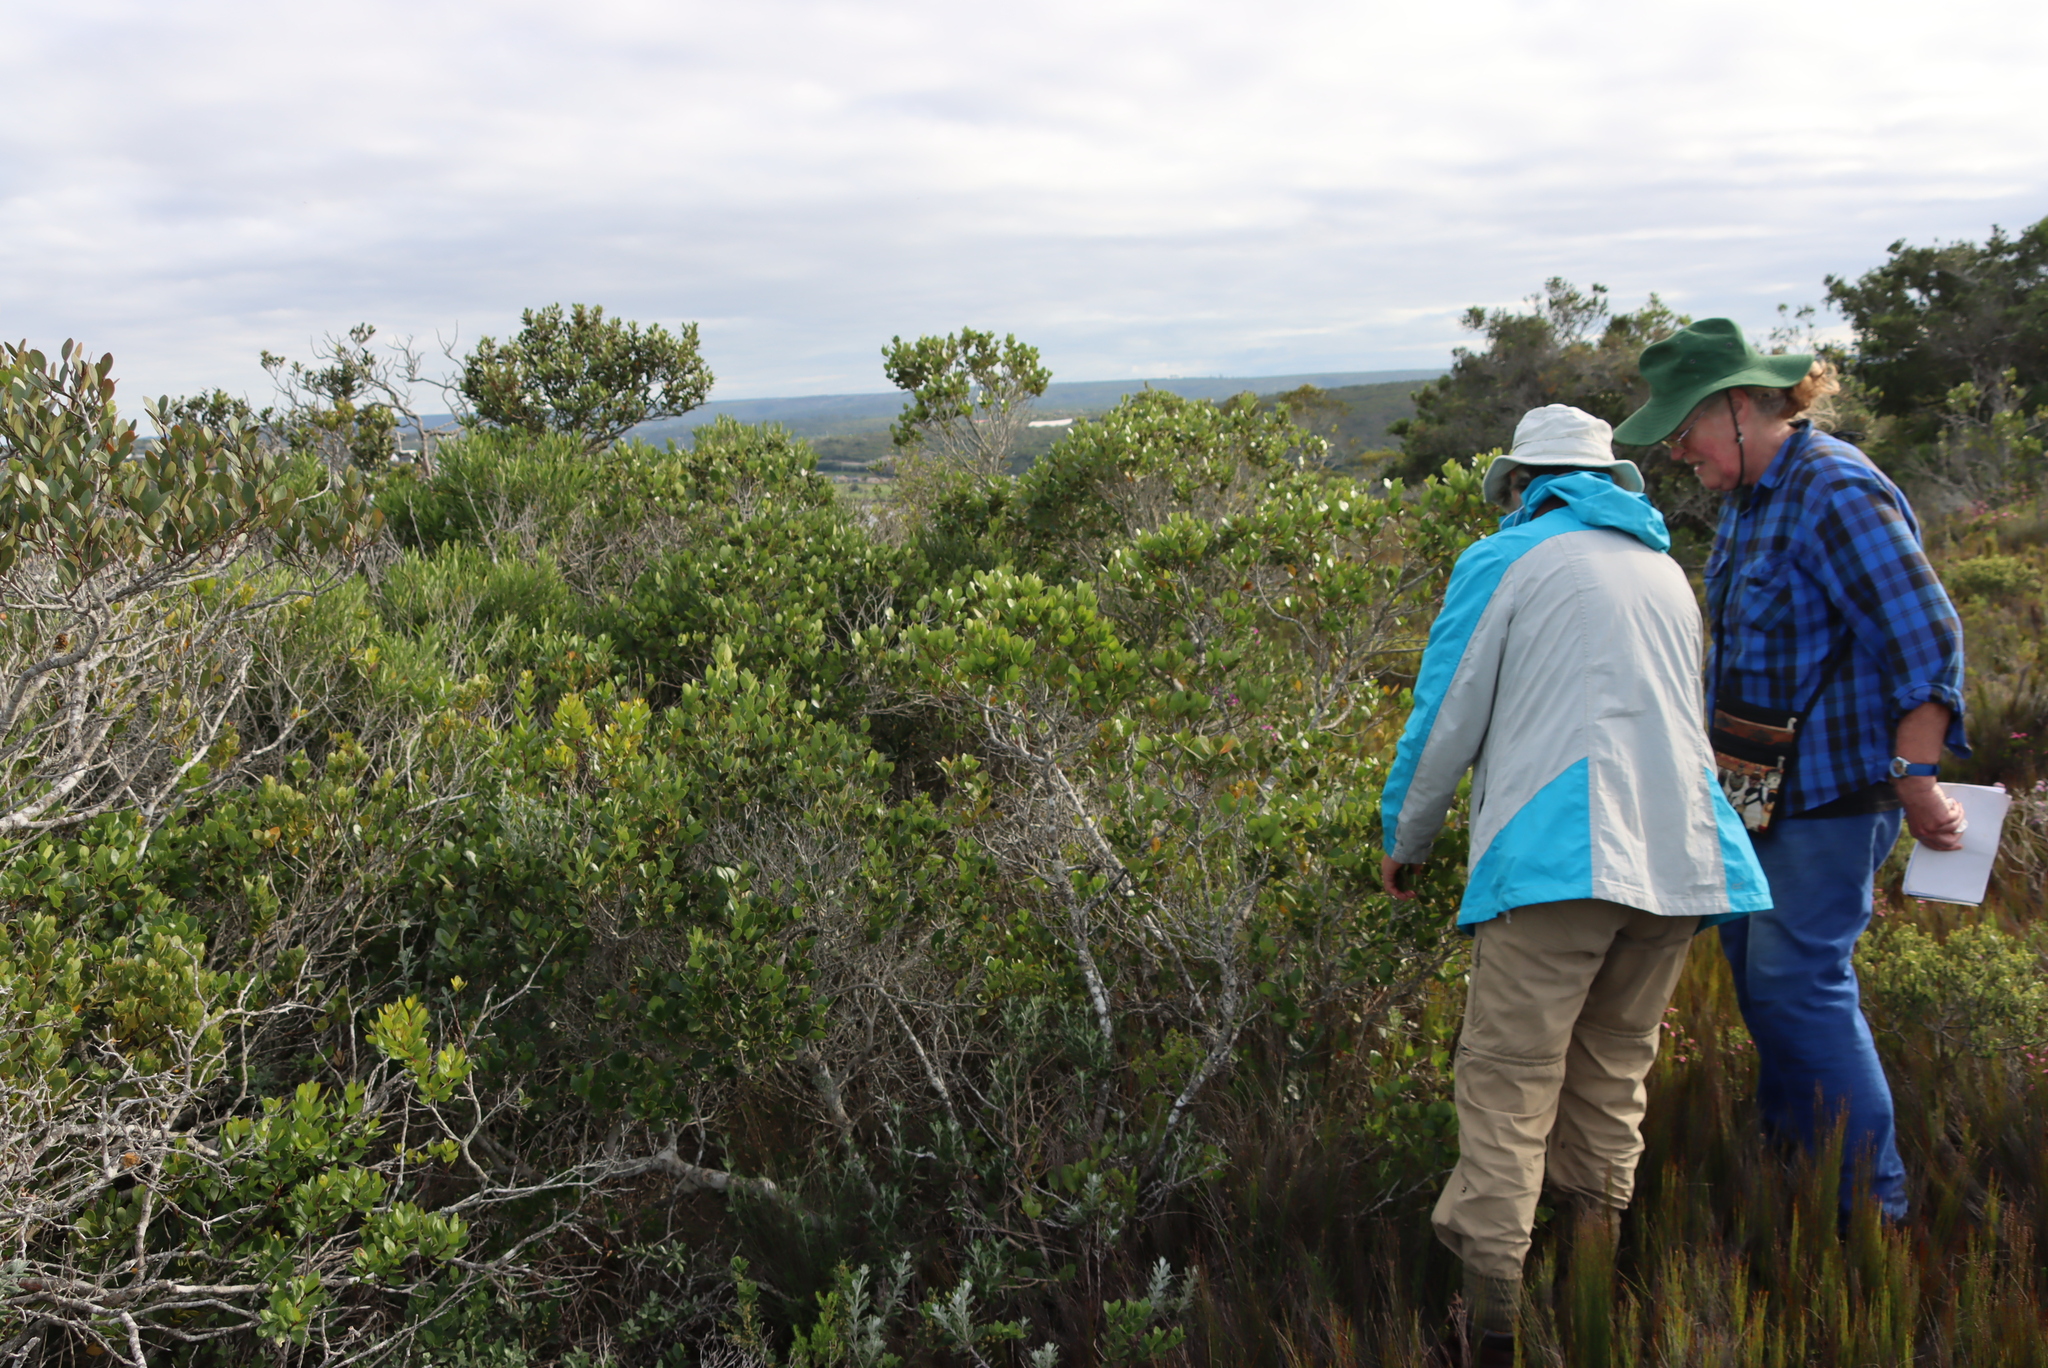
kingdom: Plantae
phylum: Tracheophyta
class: Magnoliopsida
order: Celastrales
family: Celastraceae
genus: Pterocelastrus
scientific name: Pterocelastrus tricuspidatus
